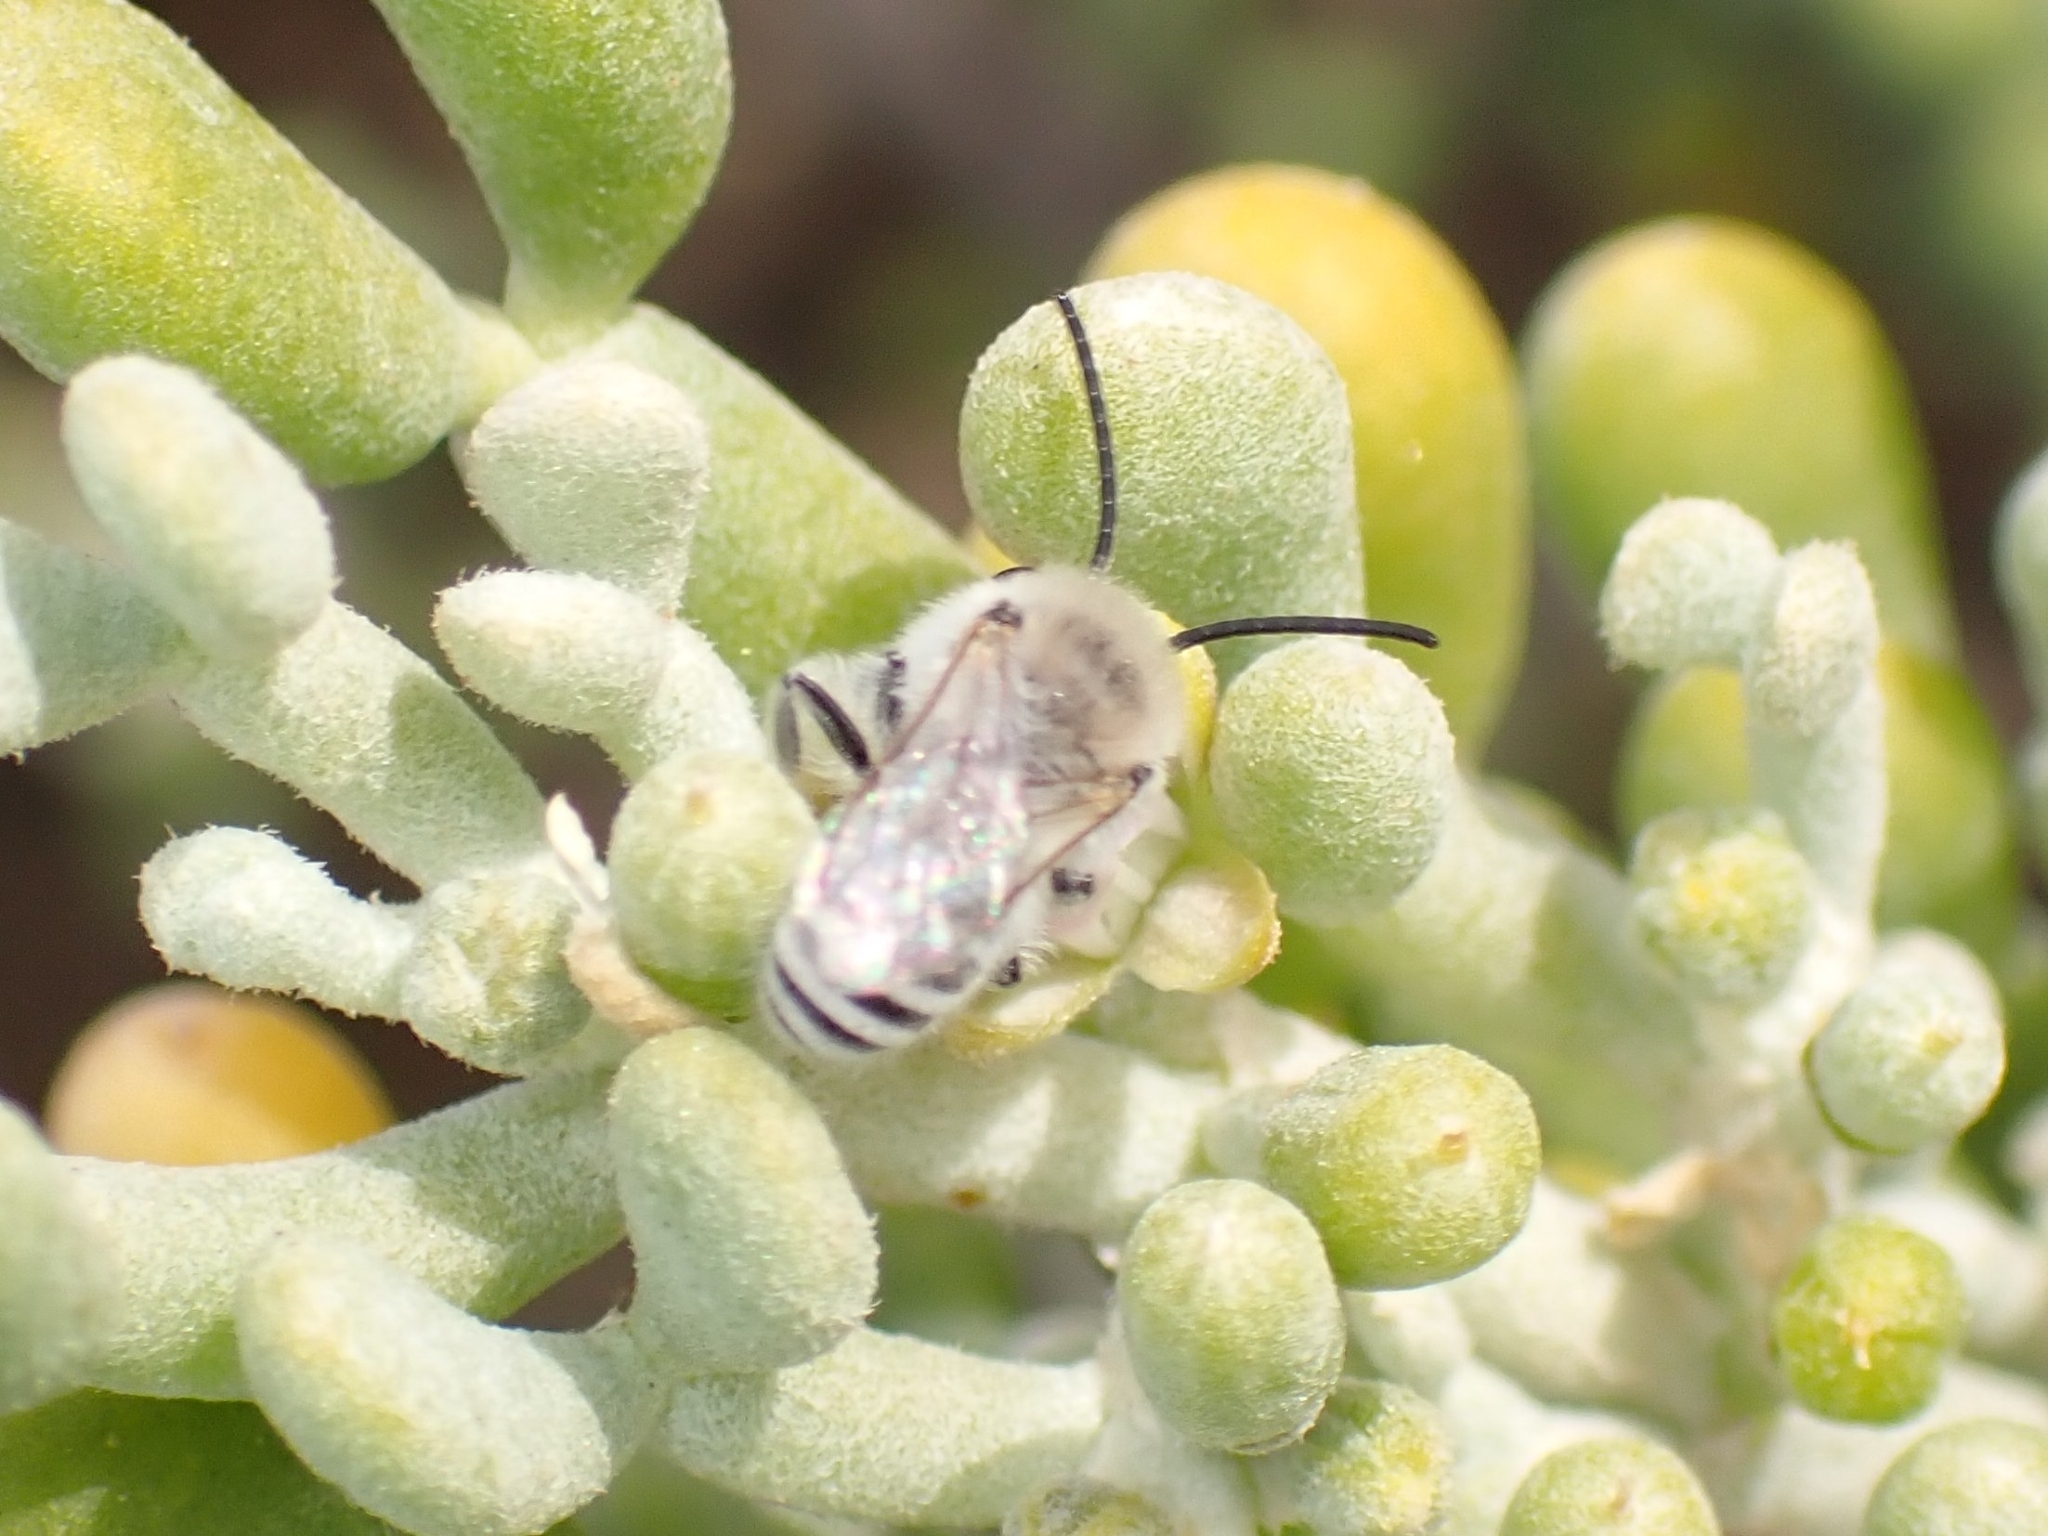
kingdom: Animalia
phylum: Arthropoda
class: Insecta
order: Hymenoptera
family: Colletidae
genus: Colletes
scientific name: Colletes moricei
